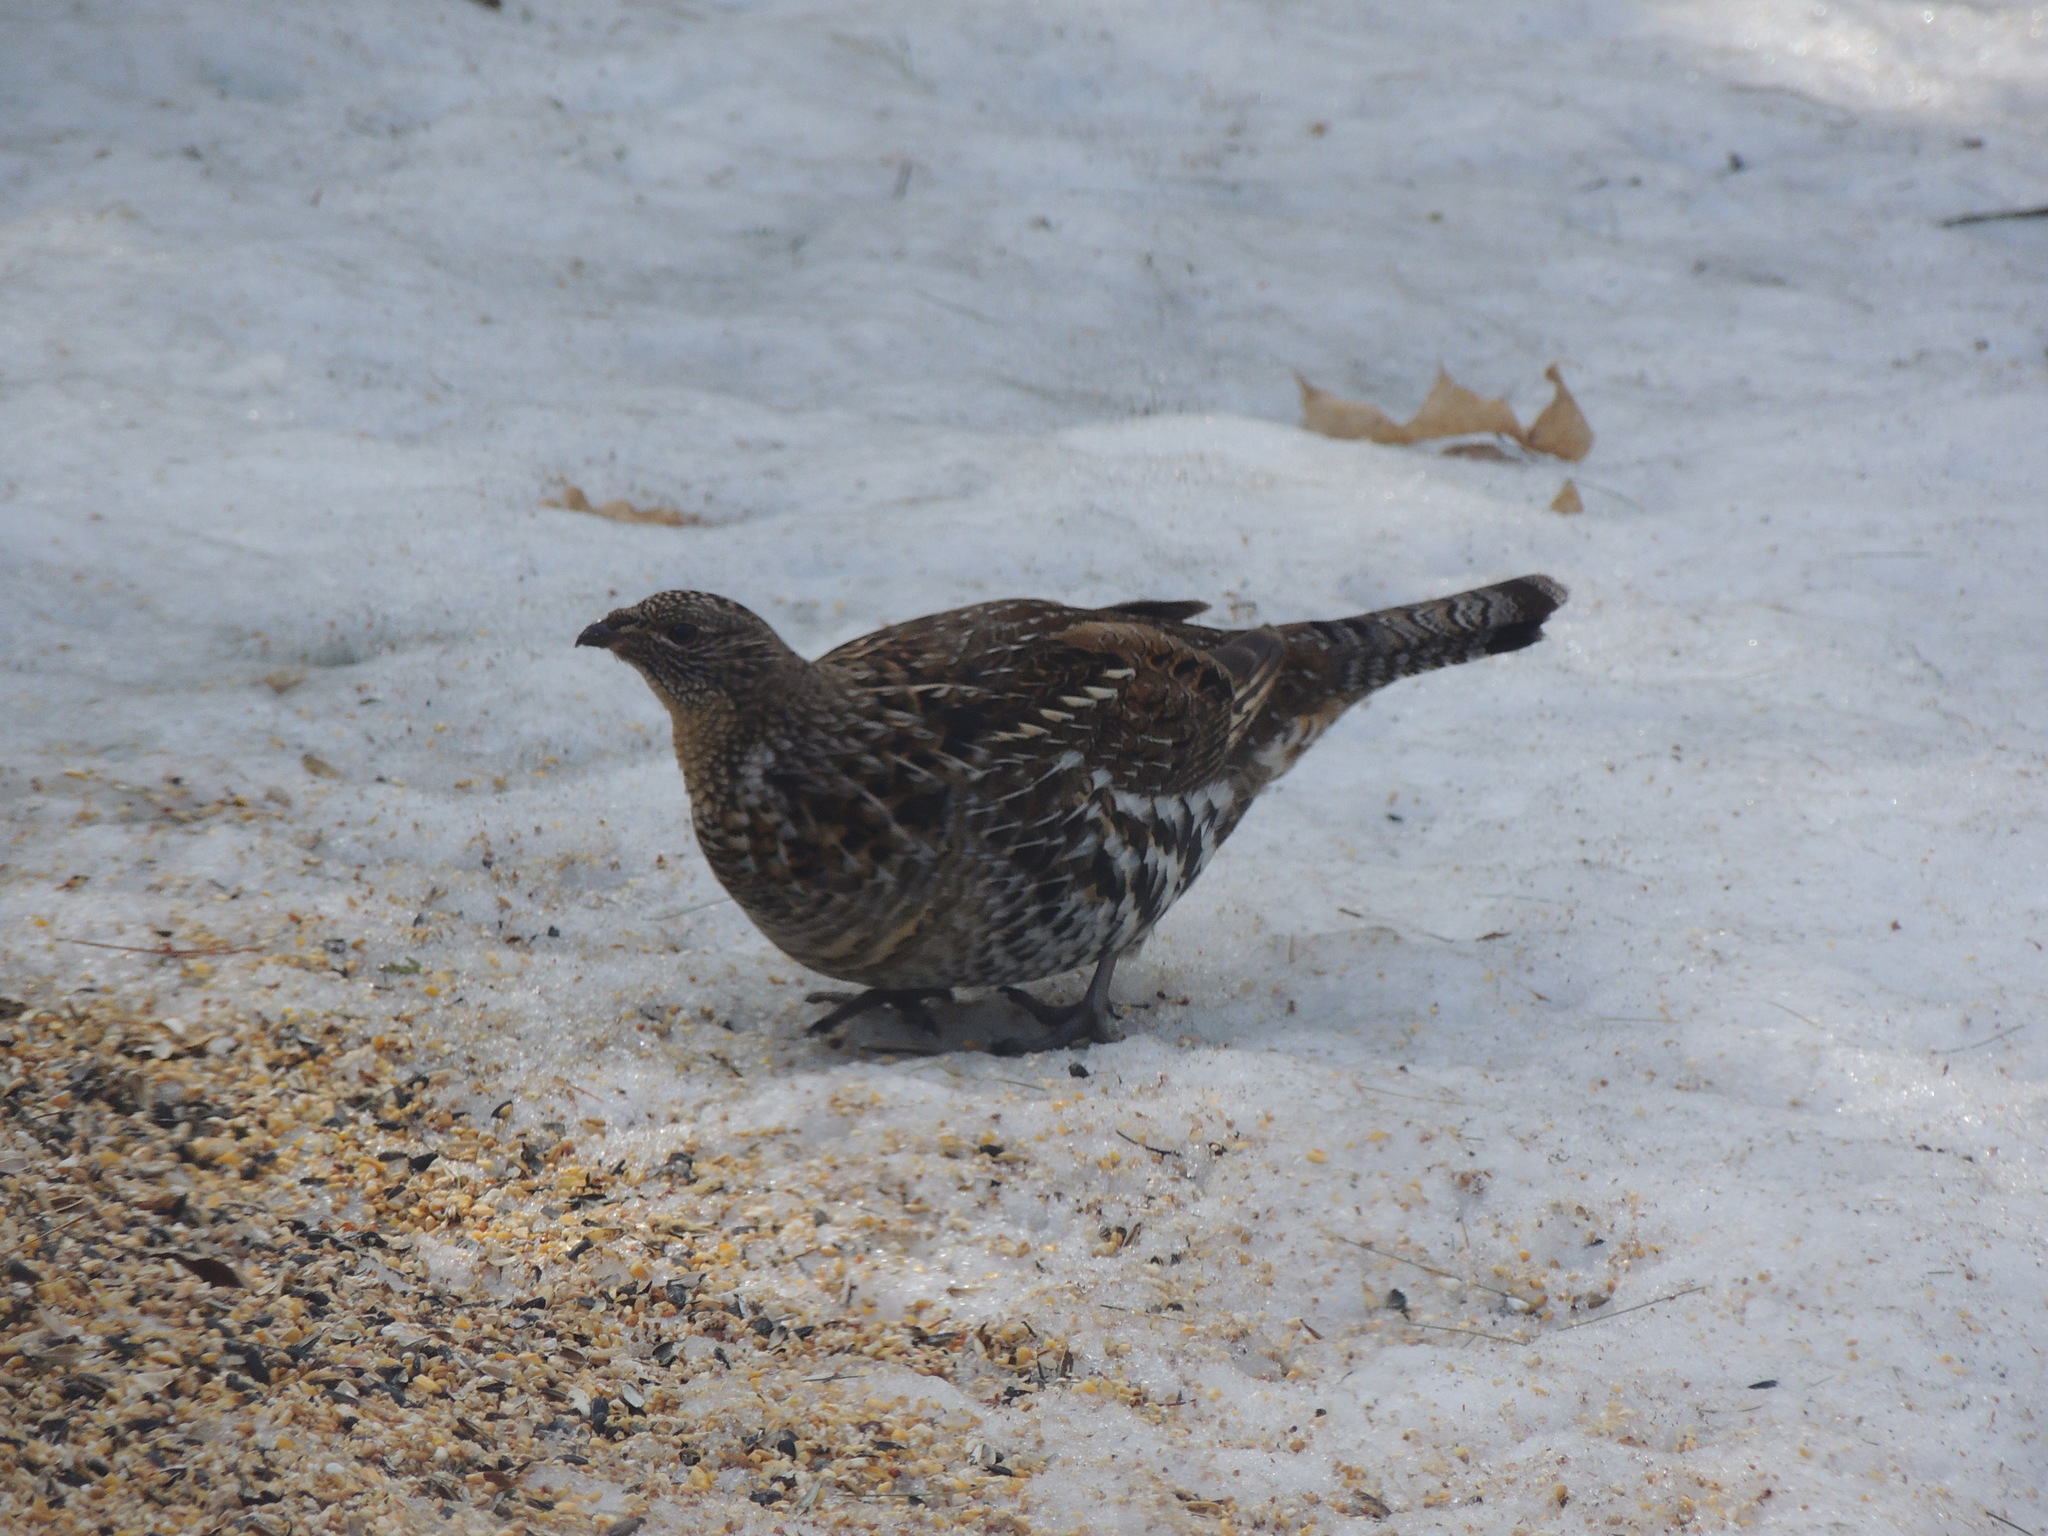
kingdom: Animalia
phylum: Chordata
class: Aves
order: Galliformes
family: Phasianidae
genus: Bonasa
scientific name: Bonasa umbellus
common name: Ruffed grouse
